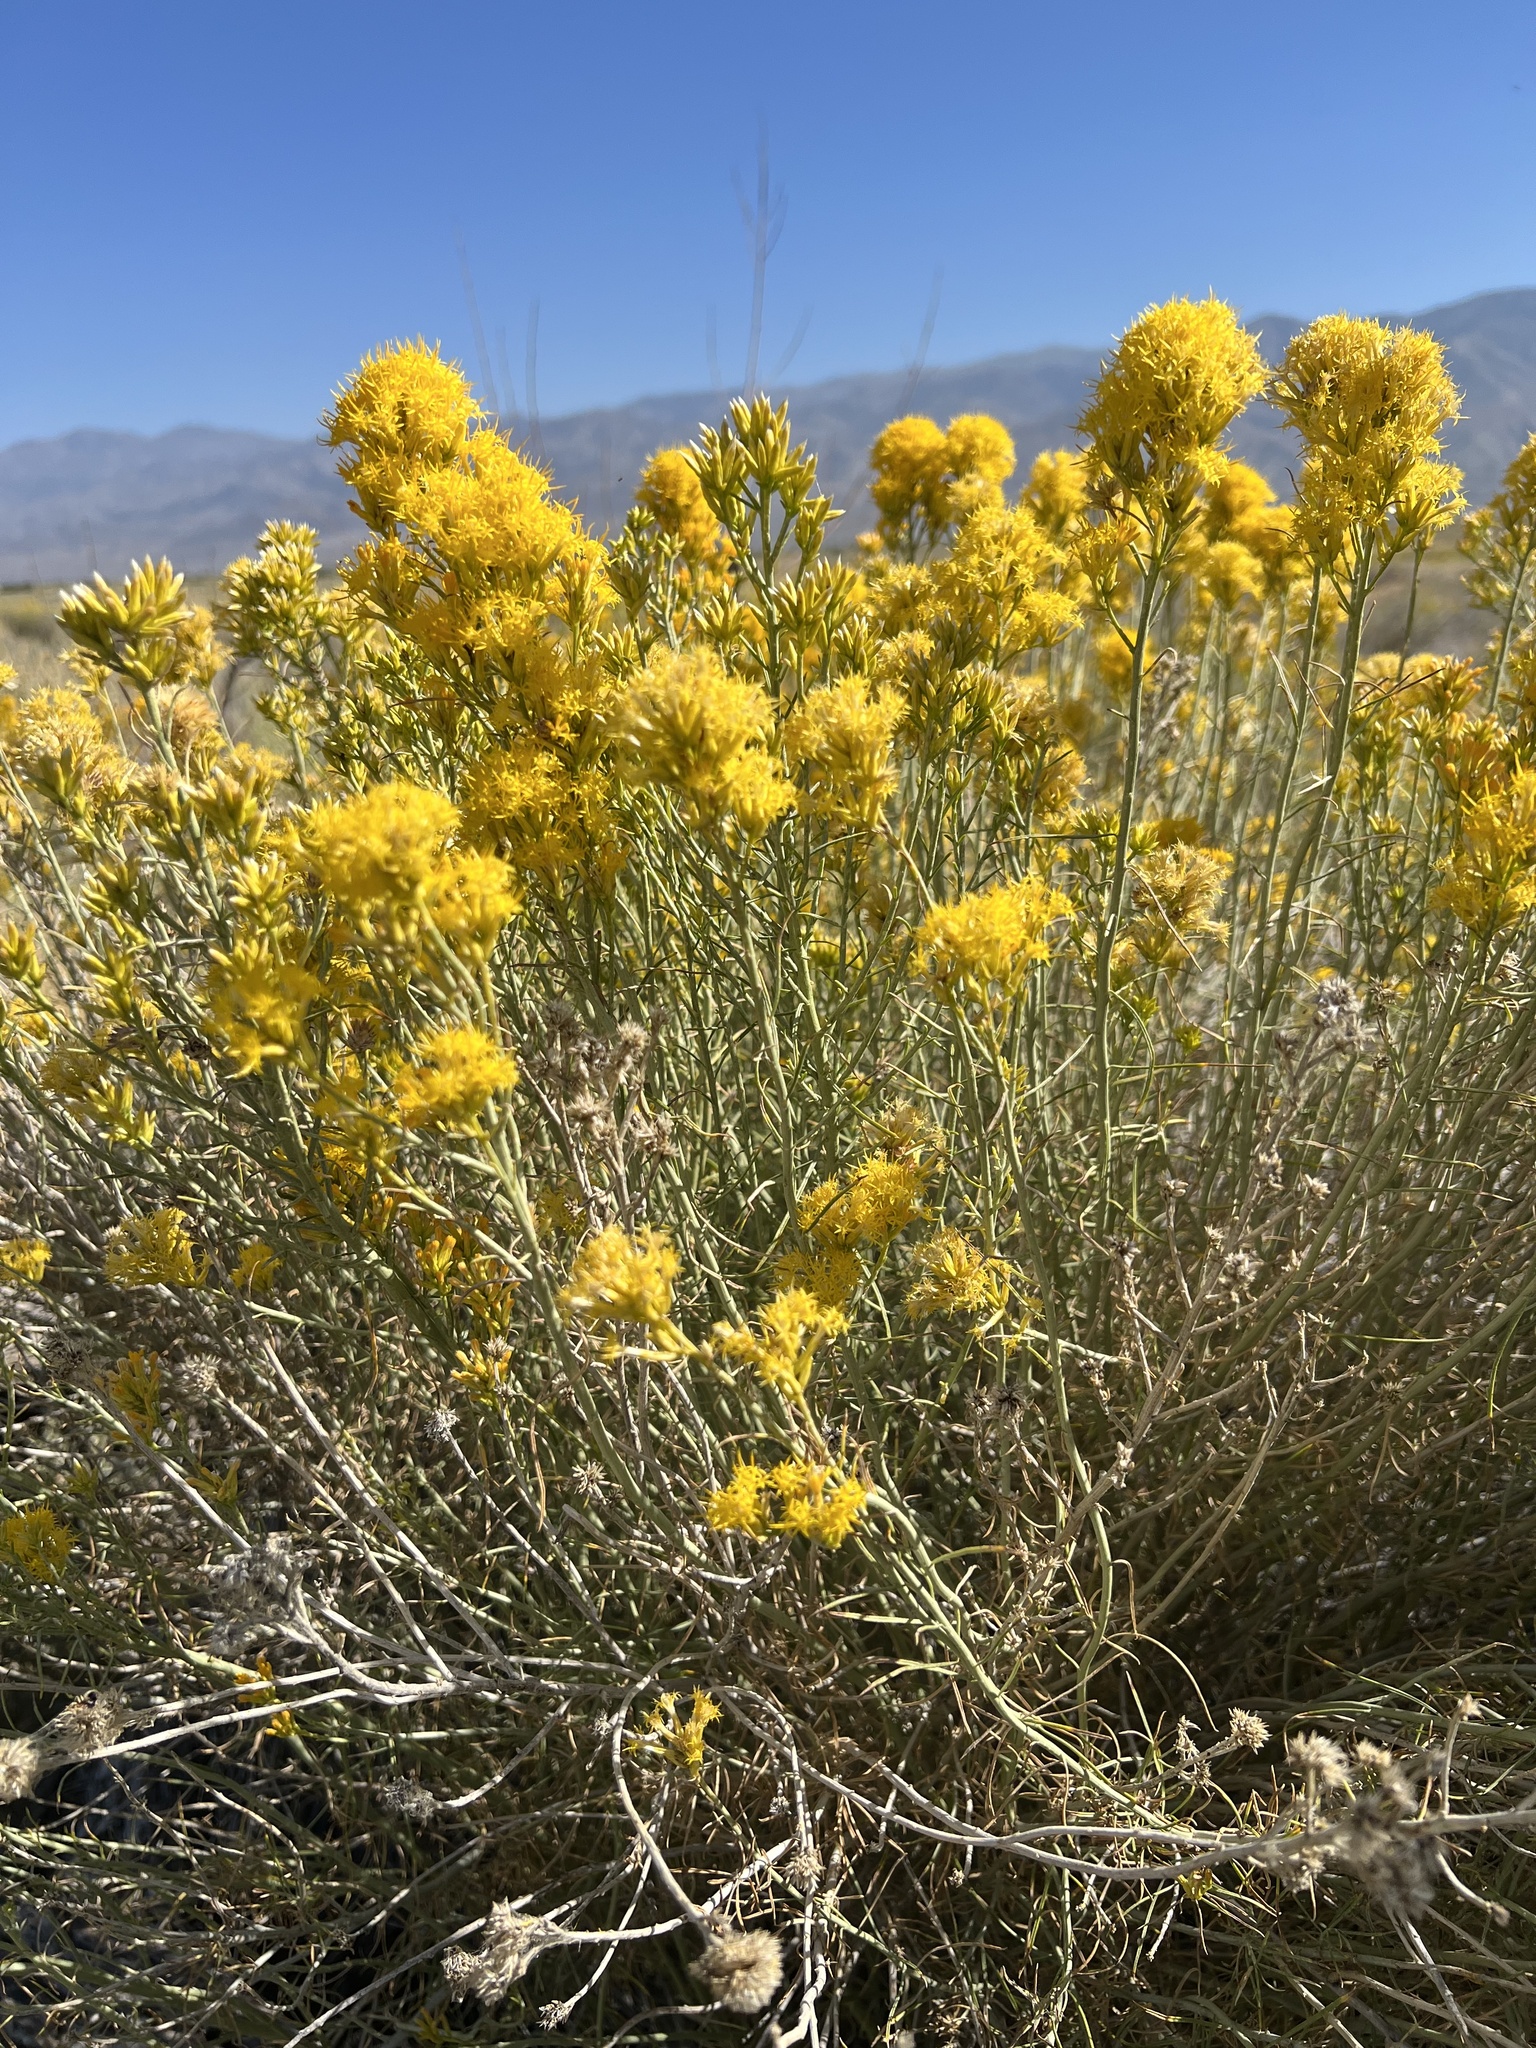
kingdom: Plantae
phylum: Tracheophyta
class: Magnoliopsida
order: Asterales
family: Asteraceae
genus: Ericameria
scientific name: Ericameria nauseosa
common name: Rubber rabbitbrush
